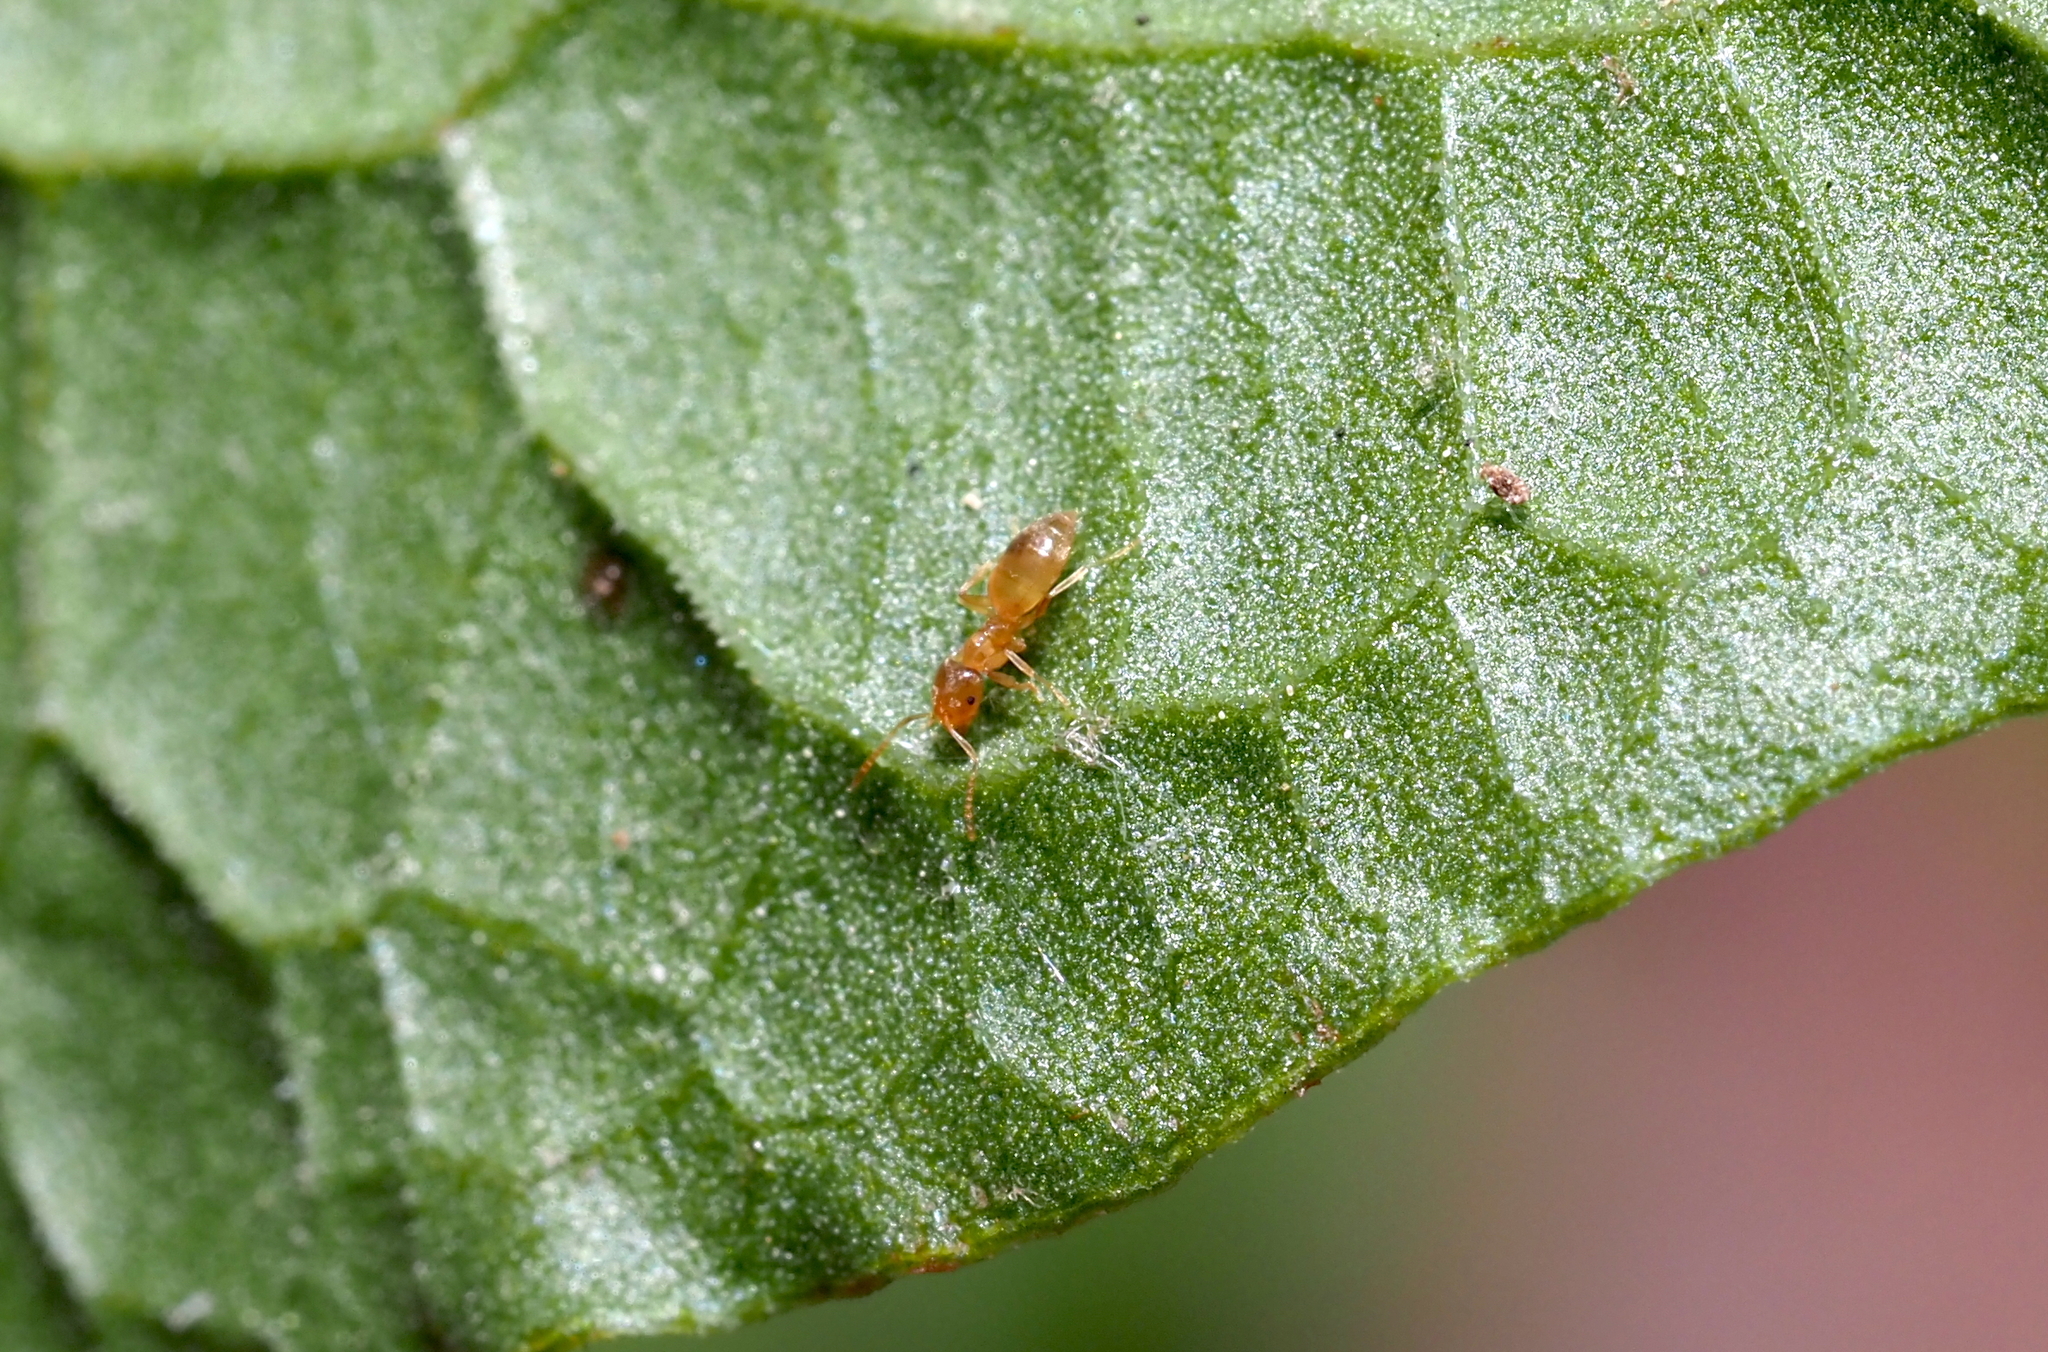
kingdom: Animalia
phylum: Arthropoda
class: Insecta
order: Hymenoptera
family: Formicidae
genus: Brachymyrmex
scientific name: Brachymyrmex depilis
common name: Hairless rover ant
